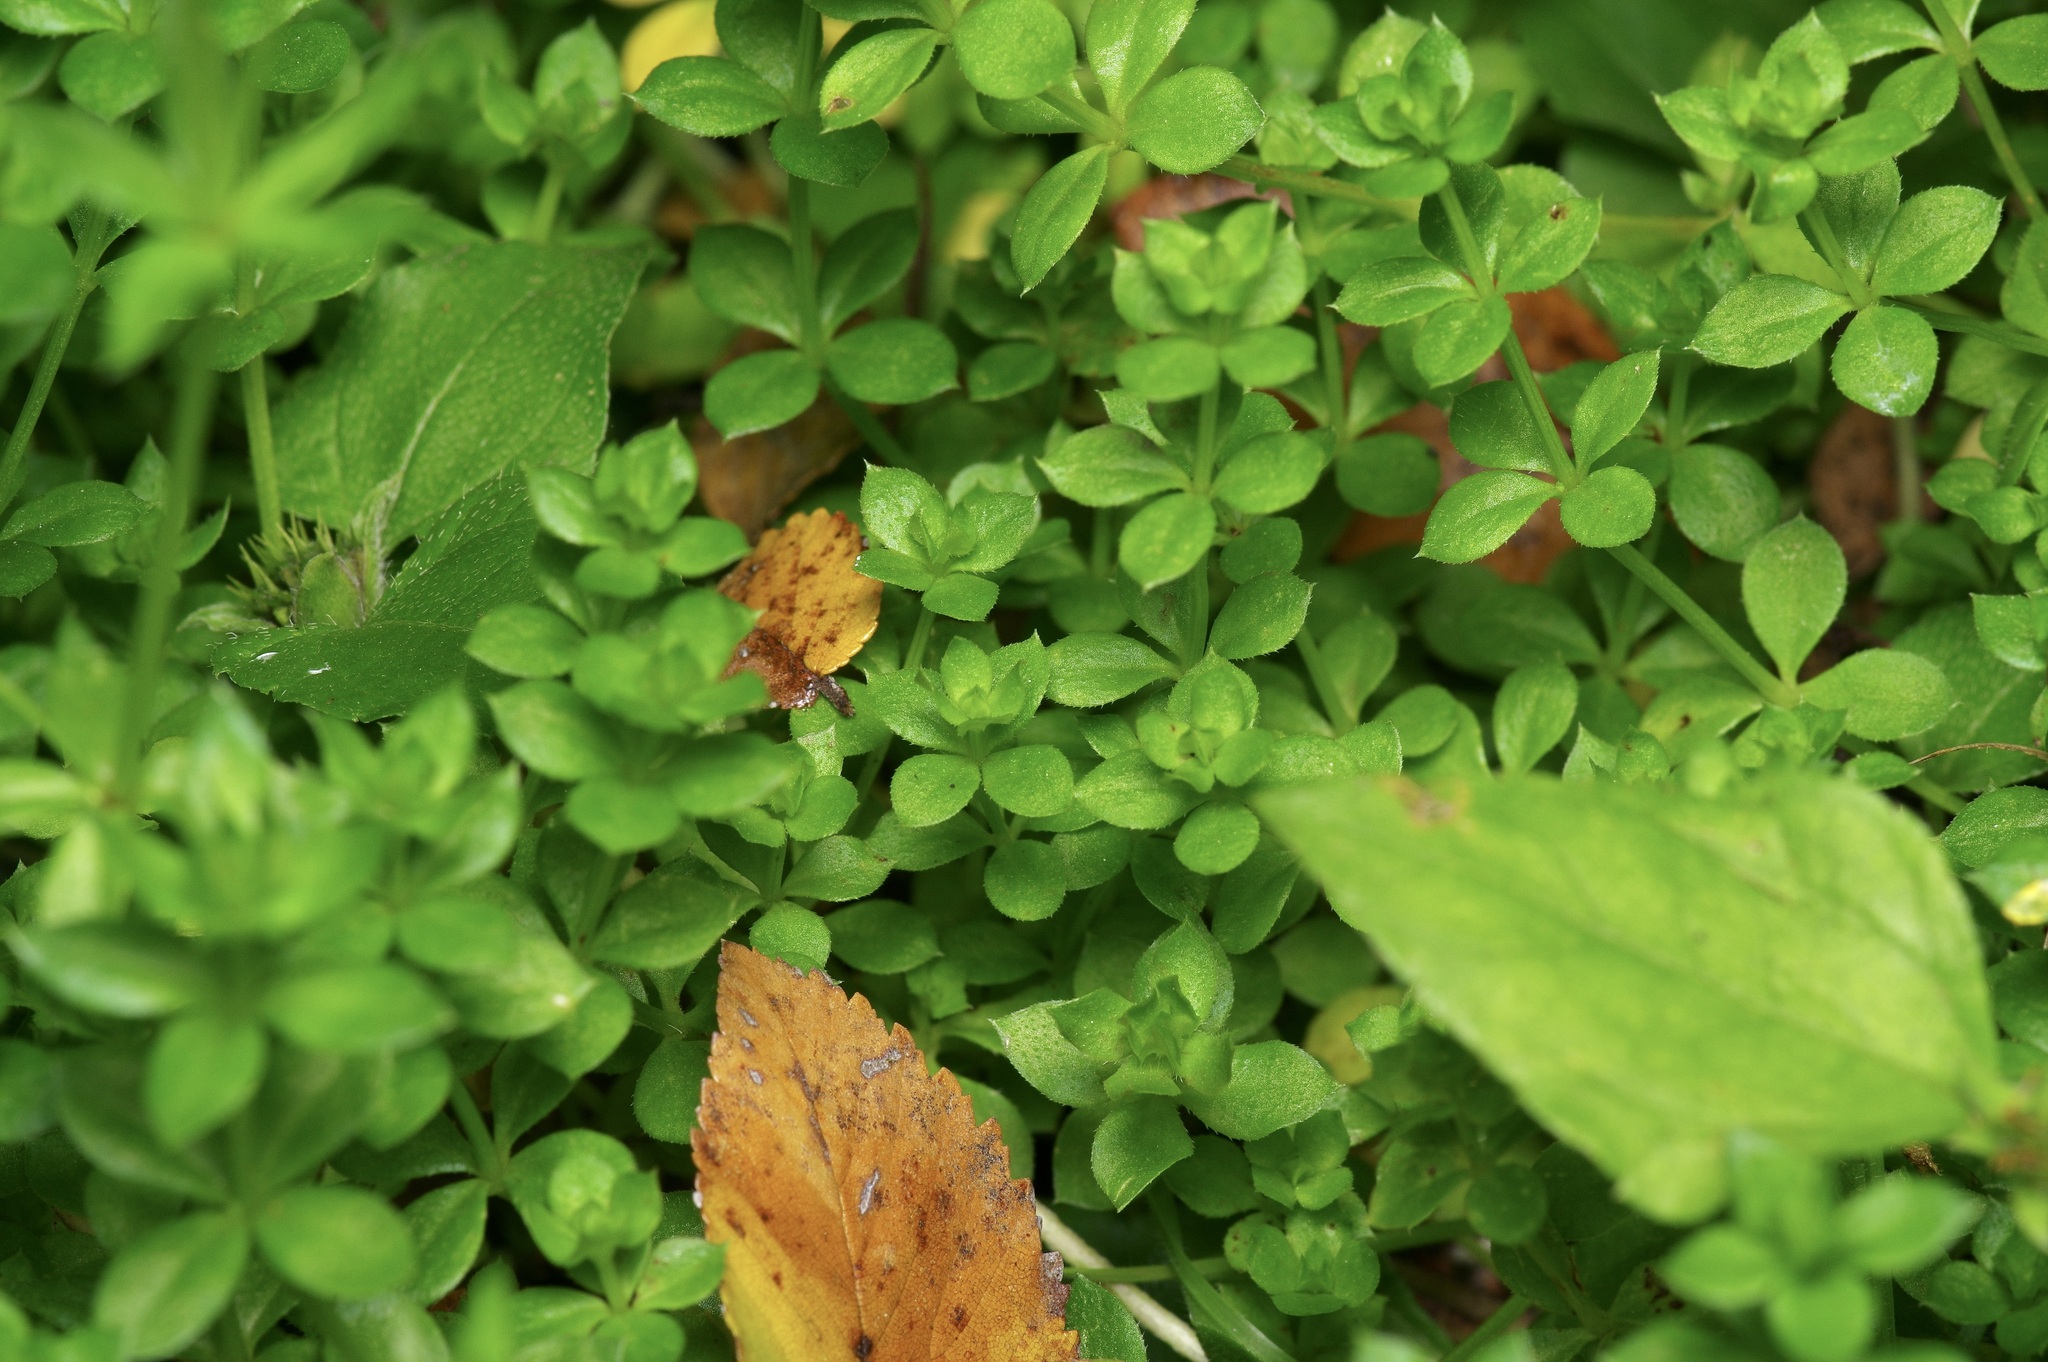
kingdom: Plantae
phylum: Tracheophyta
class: Magnoliopsida
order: Gentianales
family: Rubiaceae
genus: Sherardia
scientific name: Sherardia arvensis
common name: Field madder
